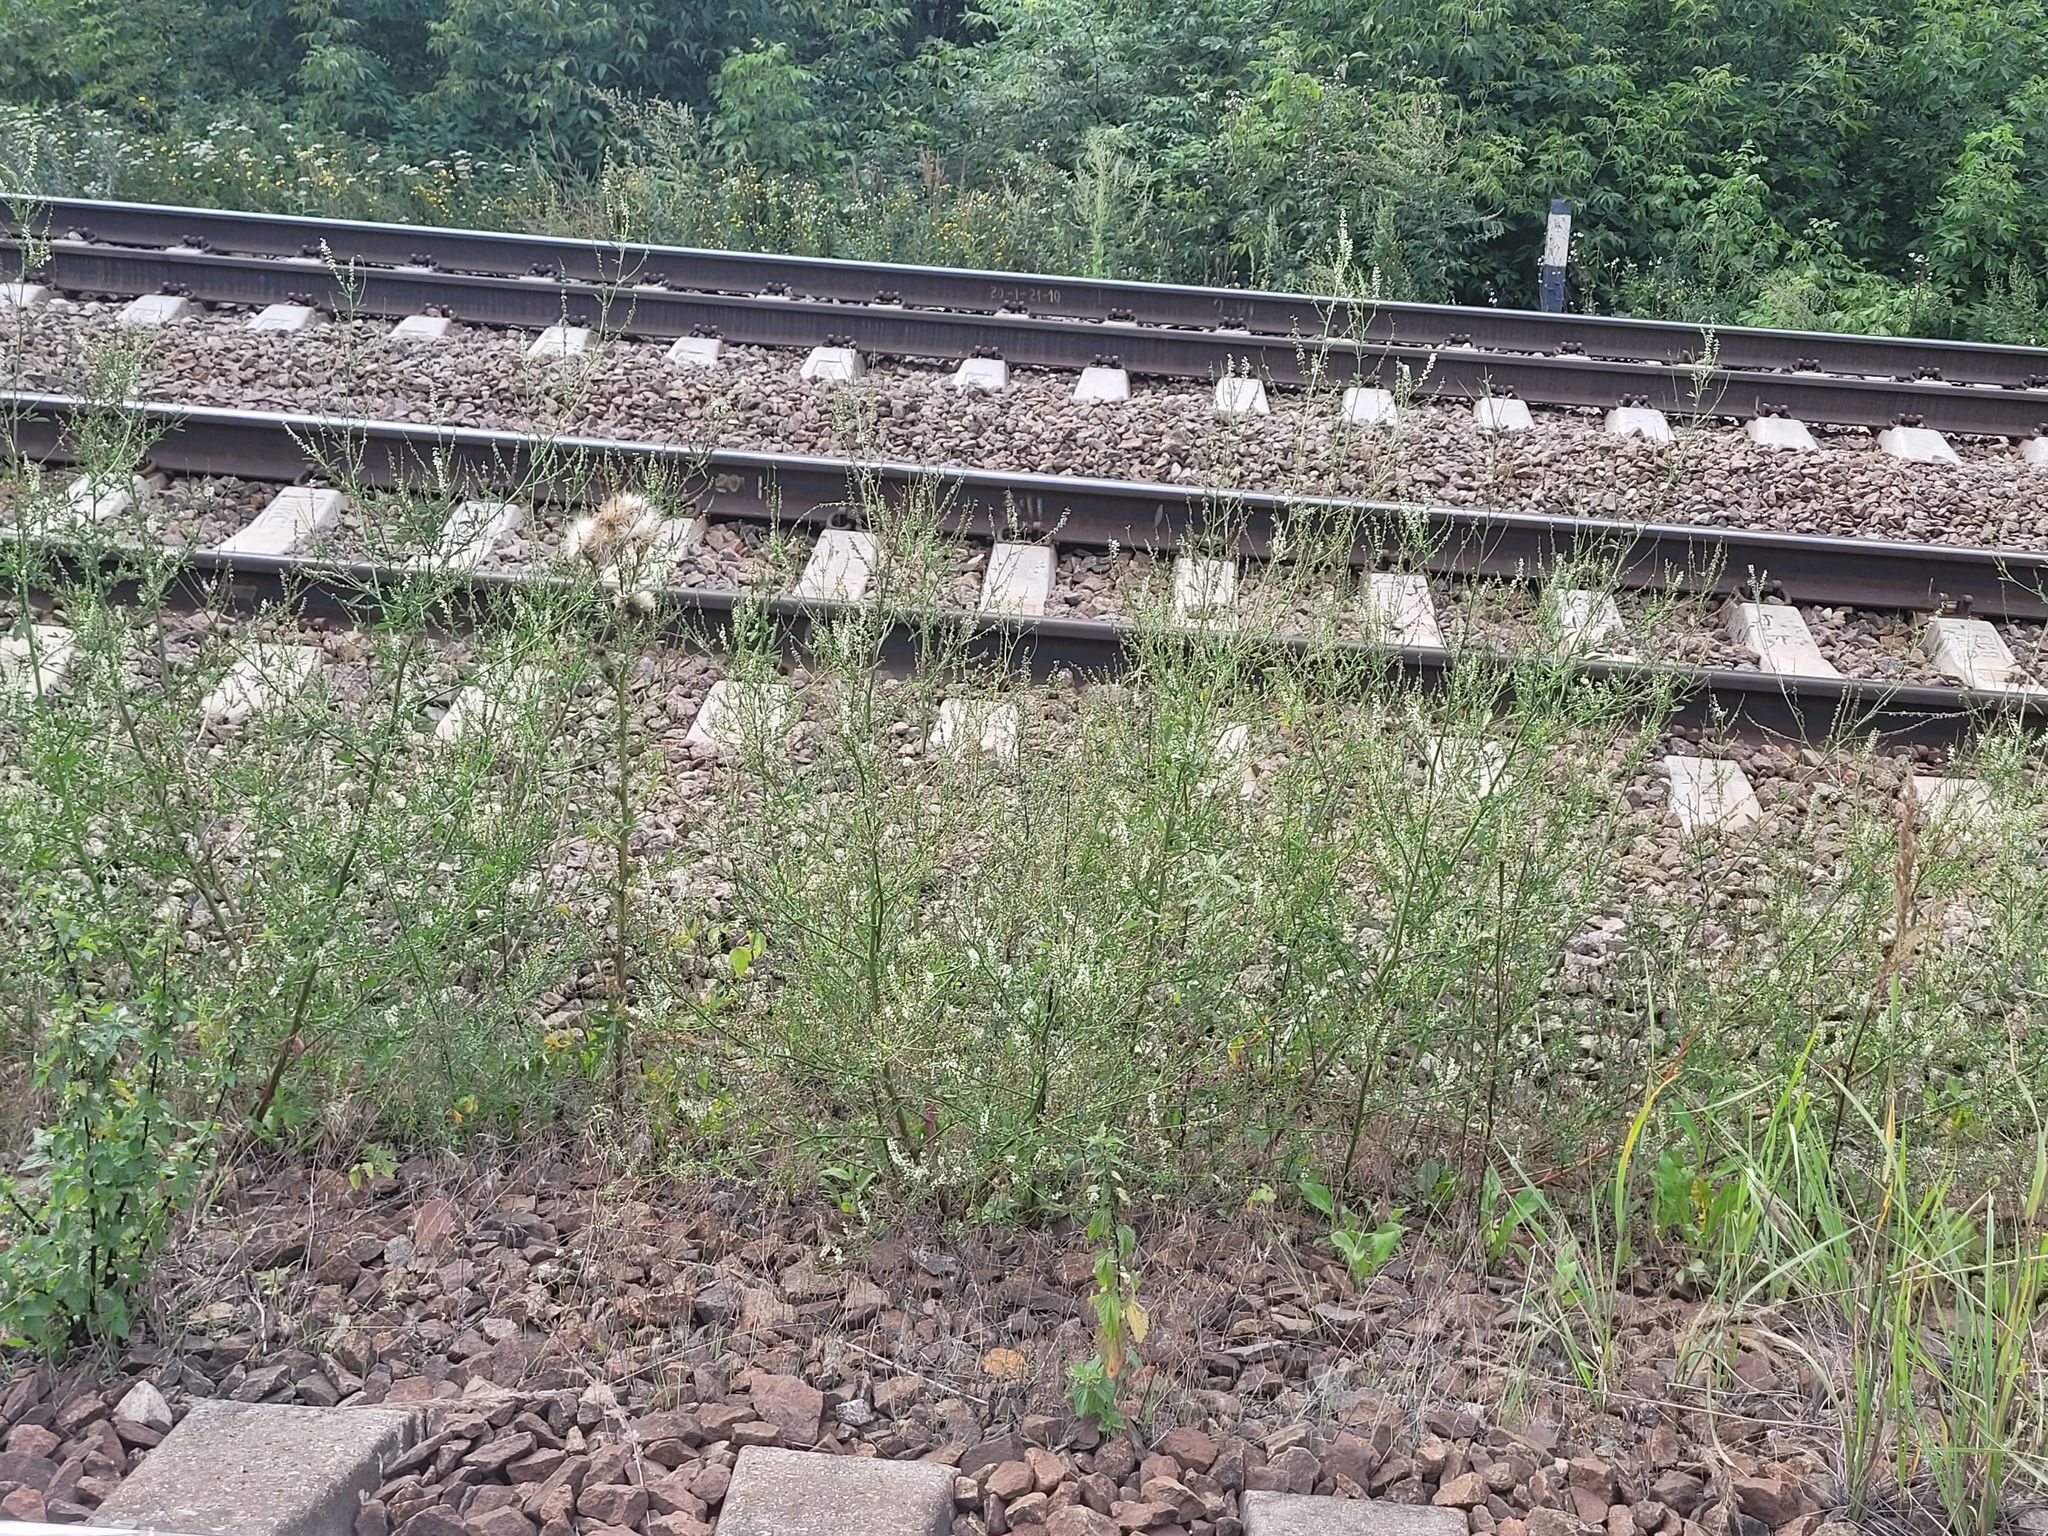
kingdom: Plantae
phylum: Tracheophyta
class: Magnoliopsida
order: Fabales
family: Fabaceae
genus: Melilotus
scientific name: Melilotus albus
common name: White melilot
